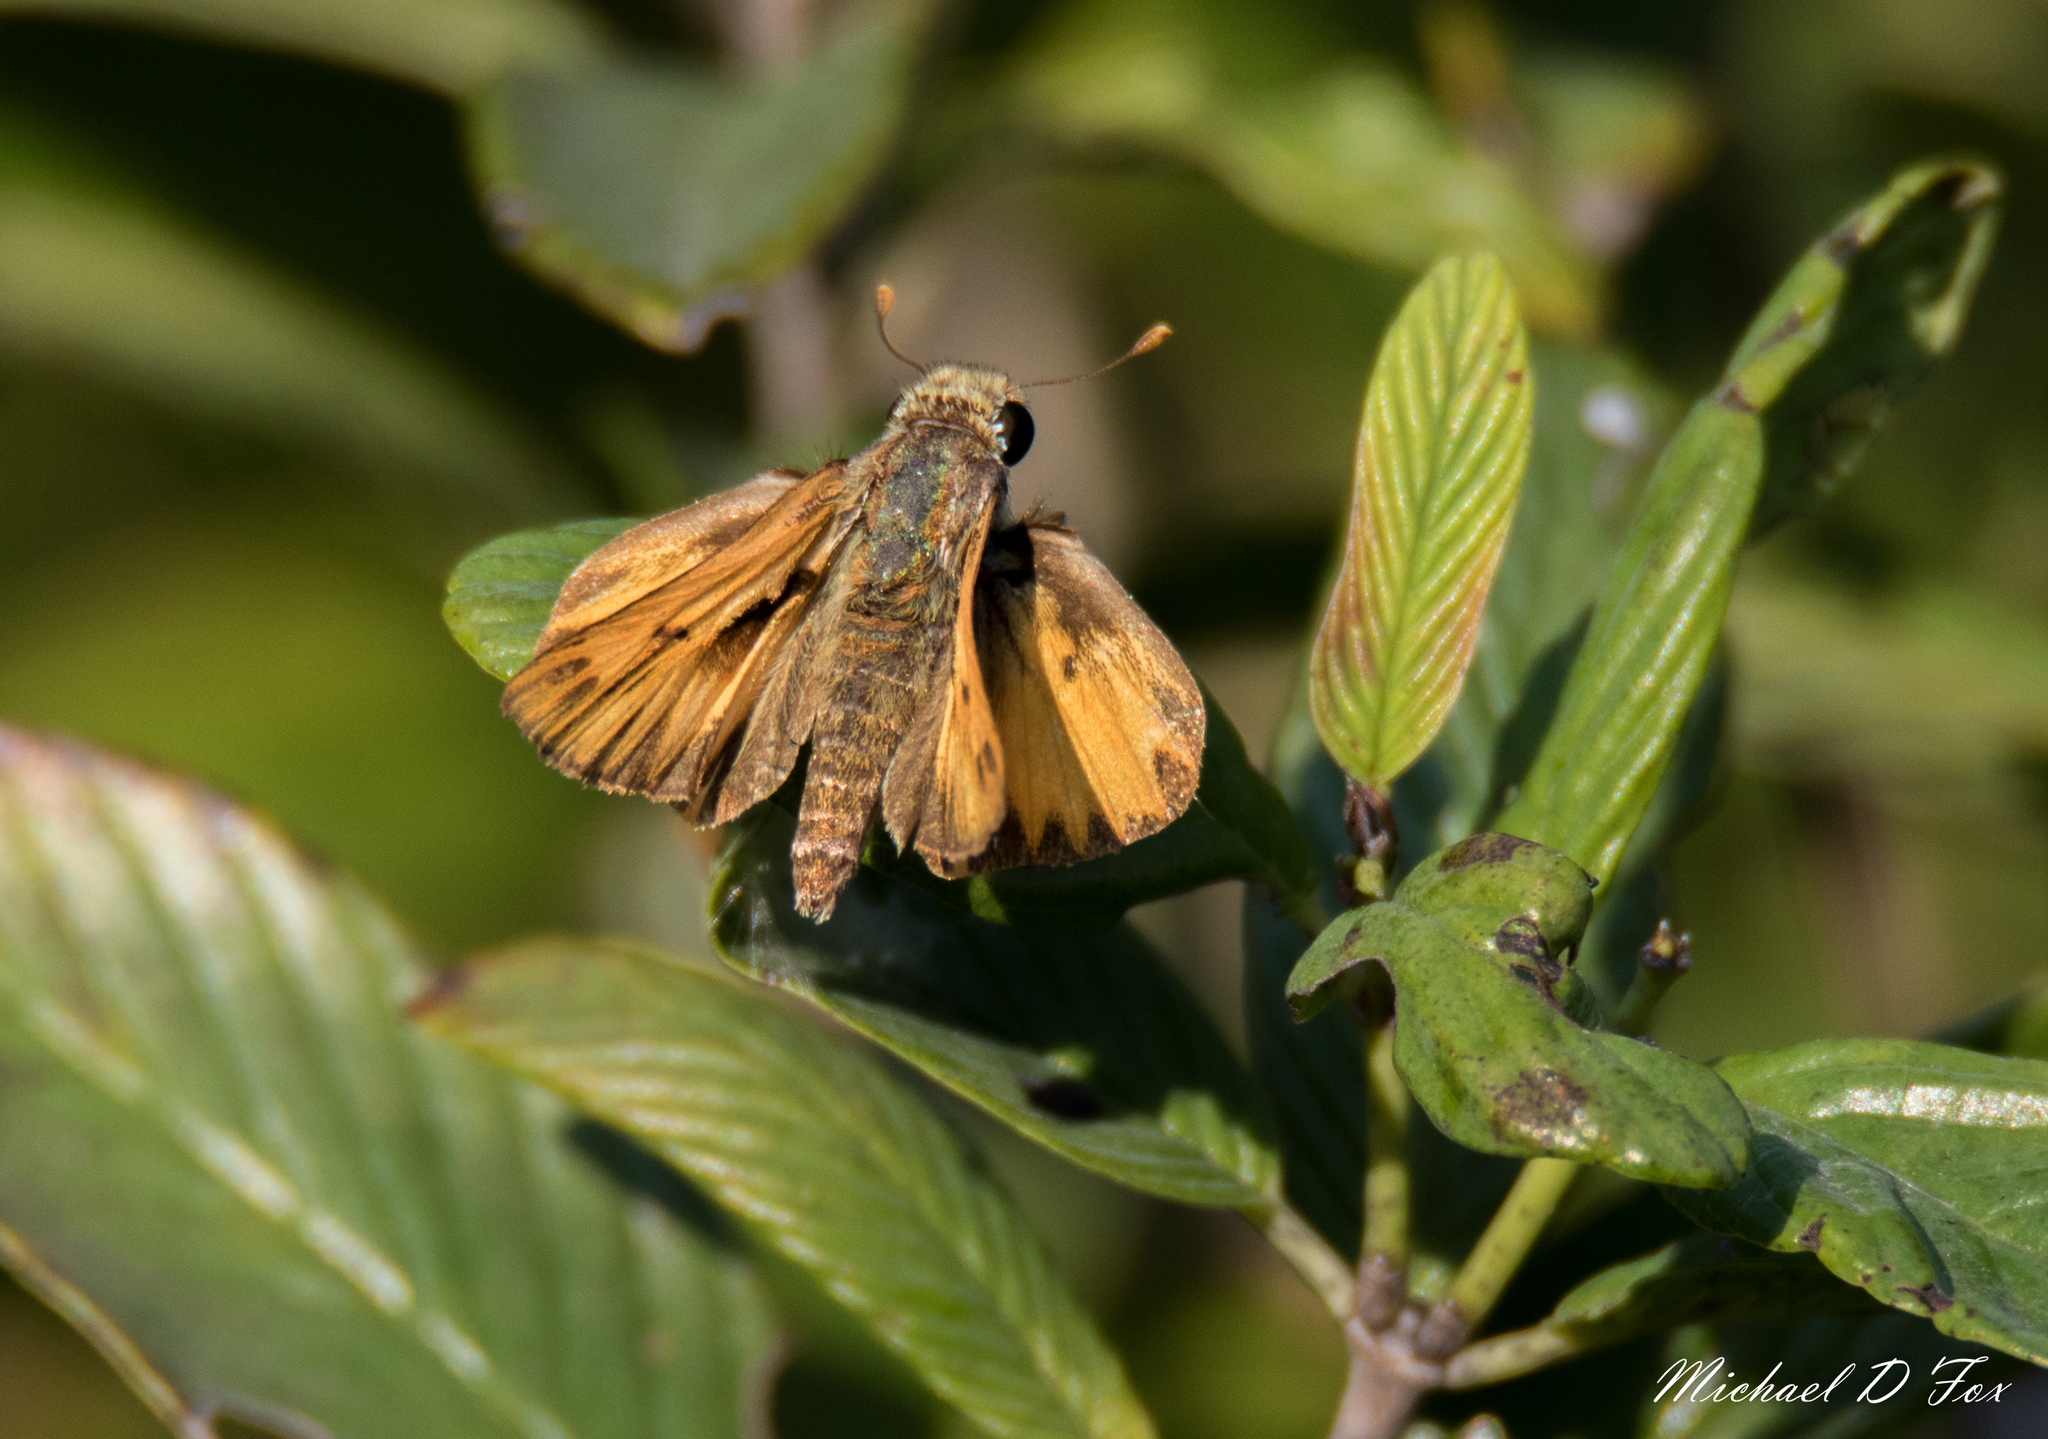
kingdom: Animalia
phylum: Arthropoda
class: Insecta
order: Lepidoptera
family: Hesperiidae
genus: Hylephila
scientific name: Hylephila phyleus
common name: Fiery skipper
